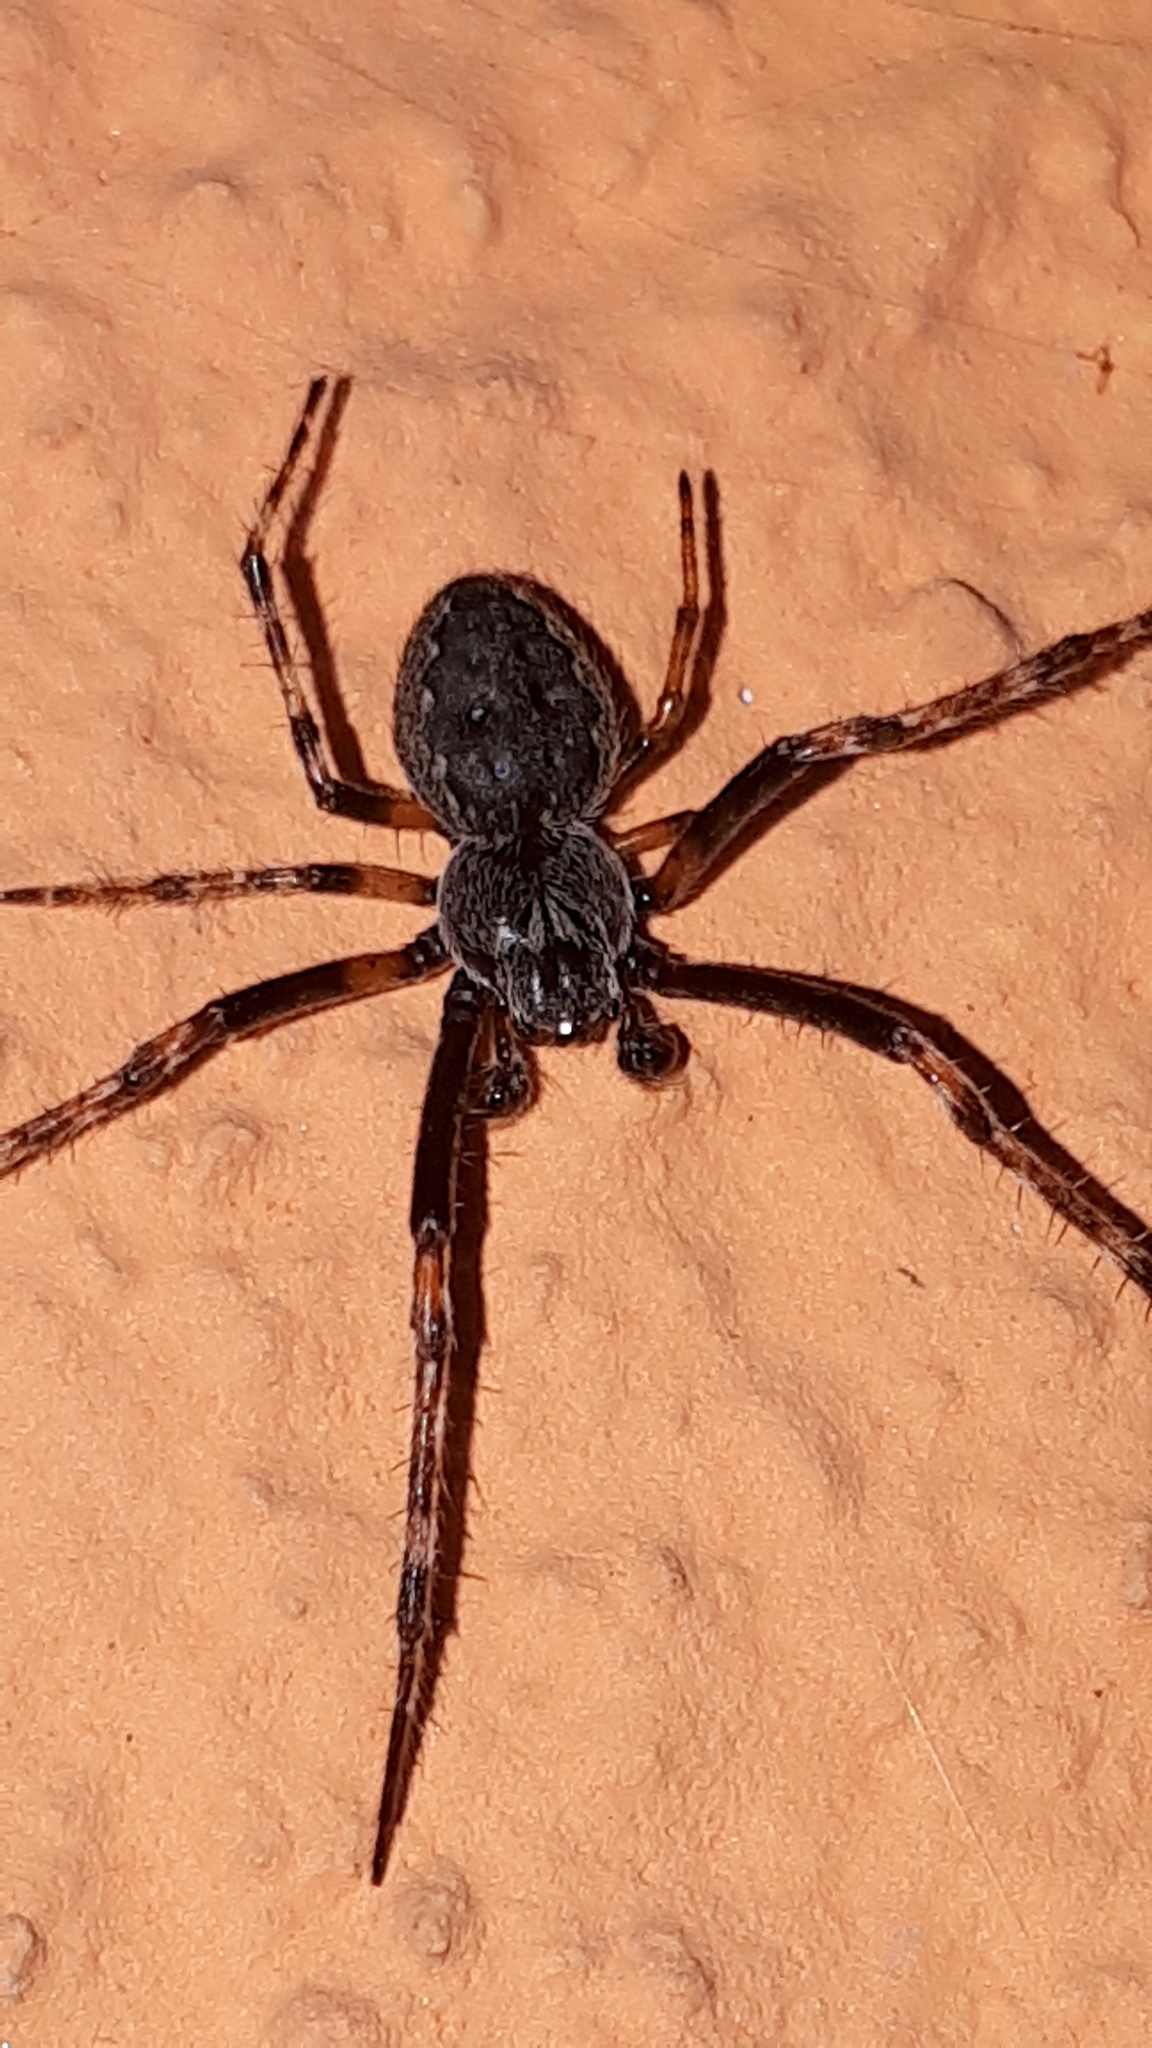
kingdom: Animalia
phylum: Arthropoda
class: Arachnida
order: Araneae
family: Araneidae
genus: Nuctenea
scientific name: Nuctenea umbratica
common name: Toad spider
